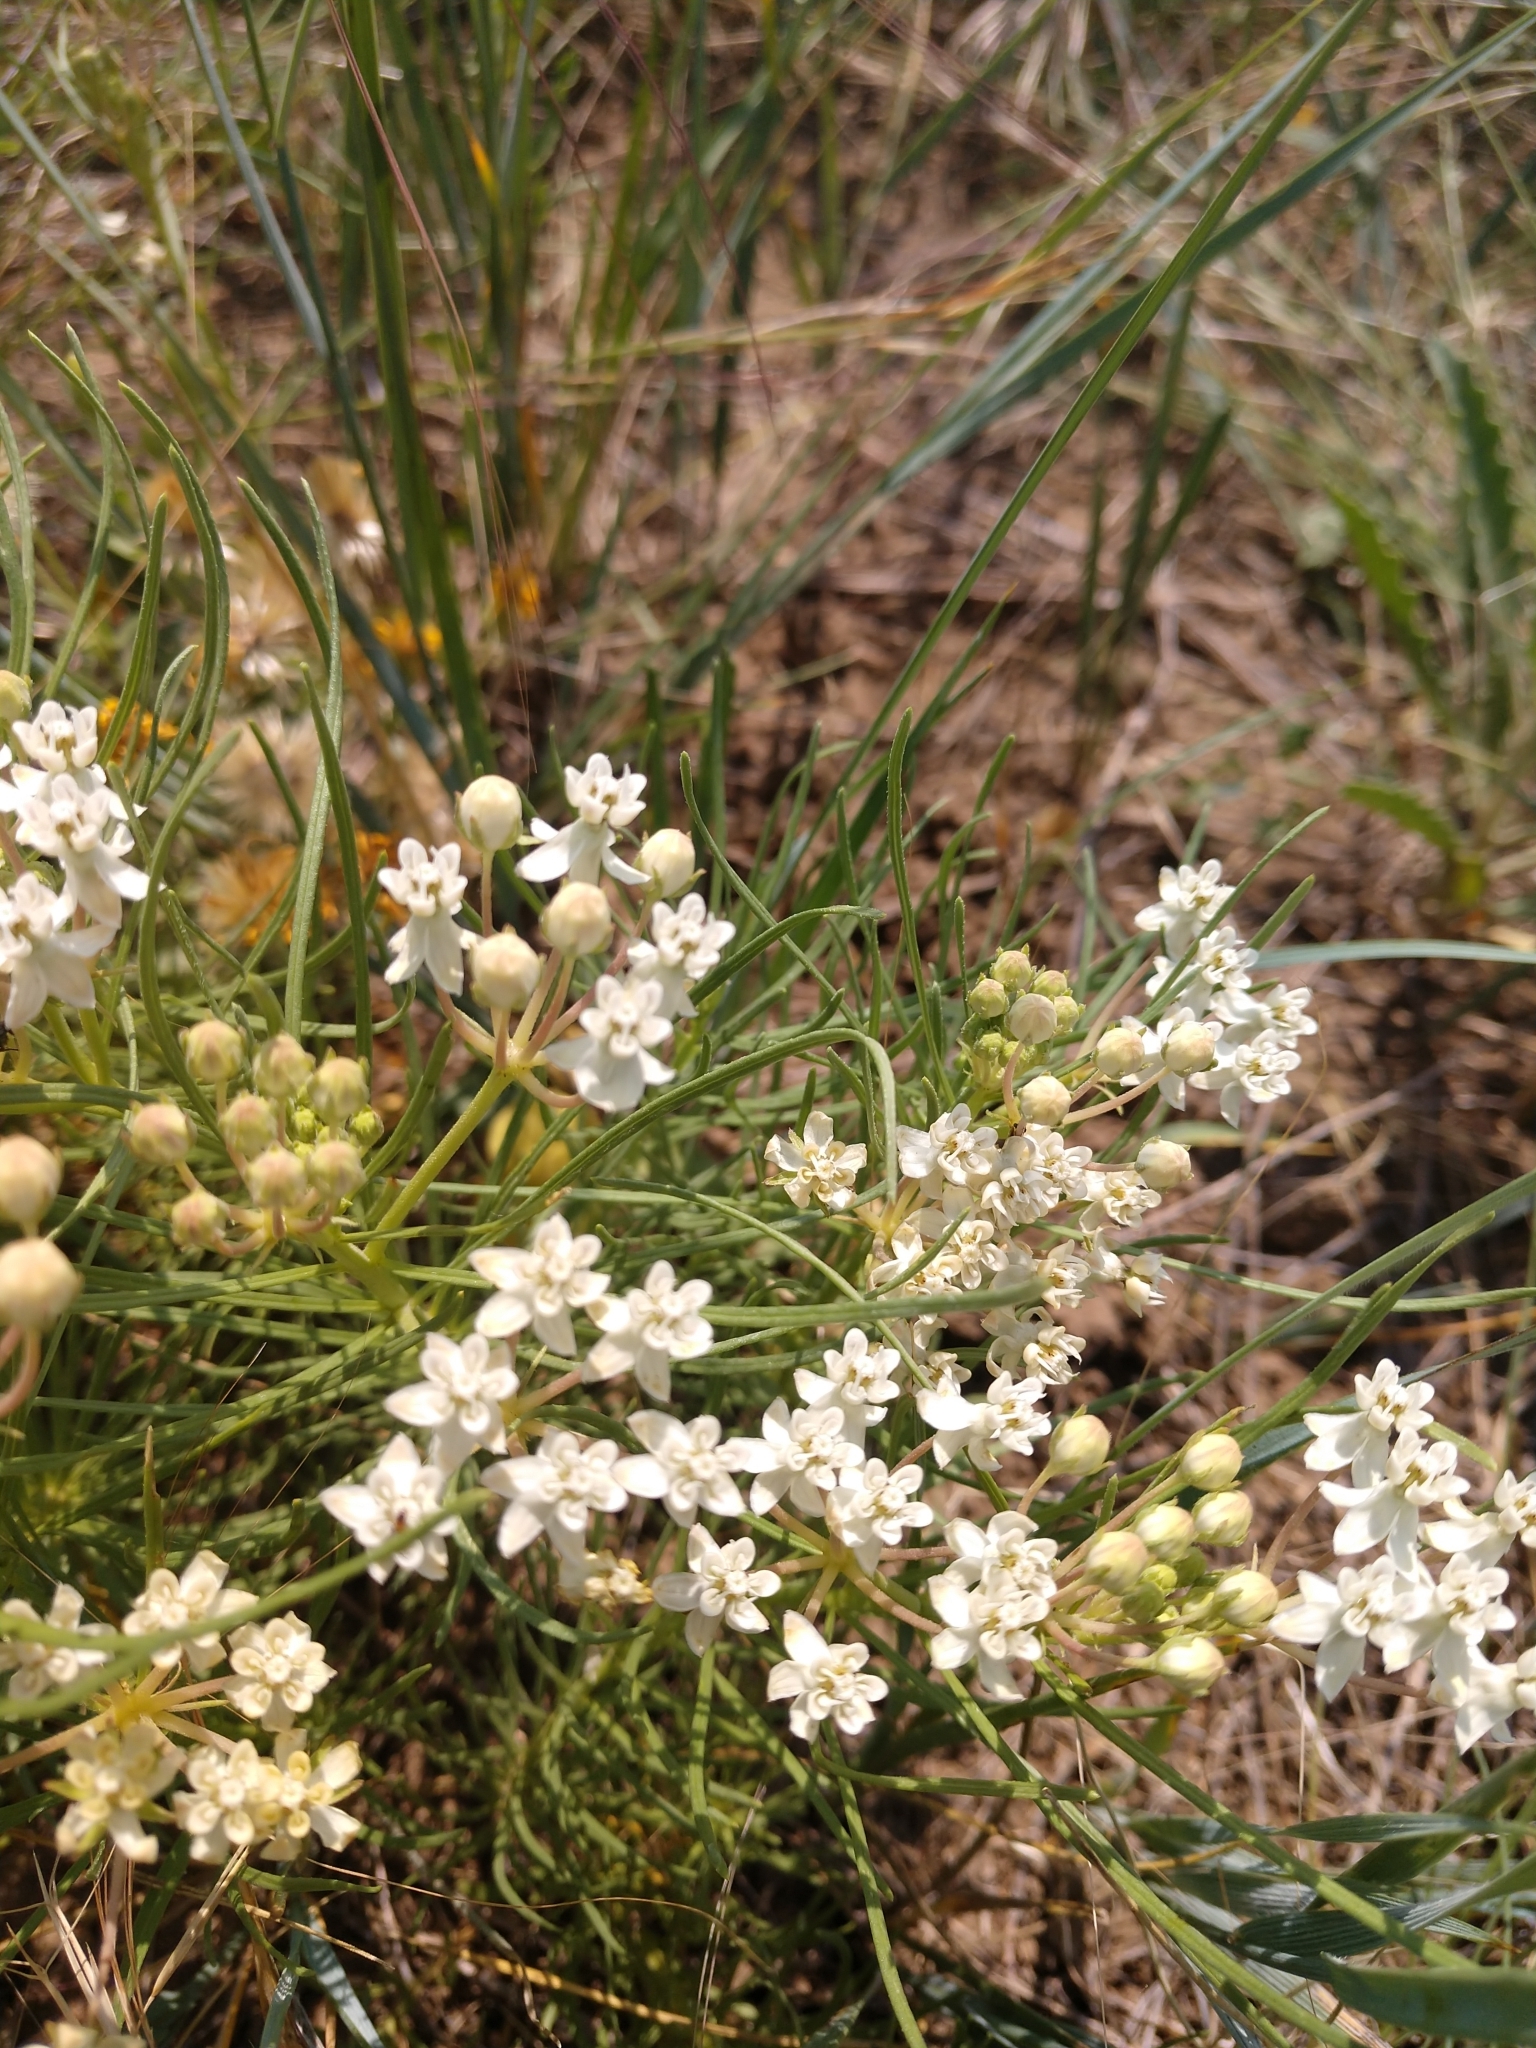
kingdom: Plantae
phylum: Tracheophyta
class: Magnoliopsida
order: Gentianales
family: Apocynaceae
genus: Asclepias
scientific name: Asclepias subverticillata
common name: Horsetail milkweed
